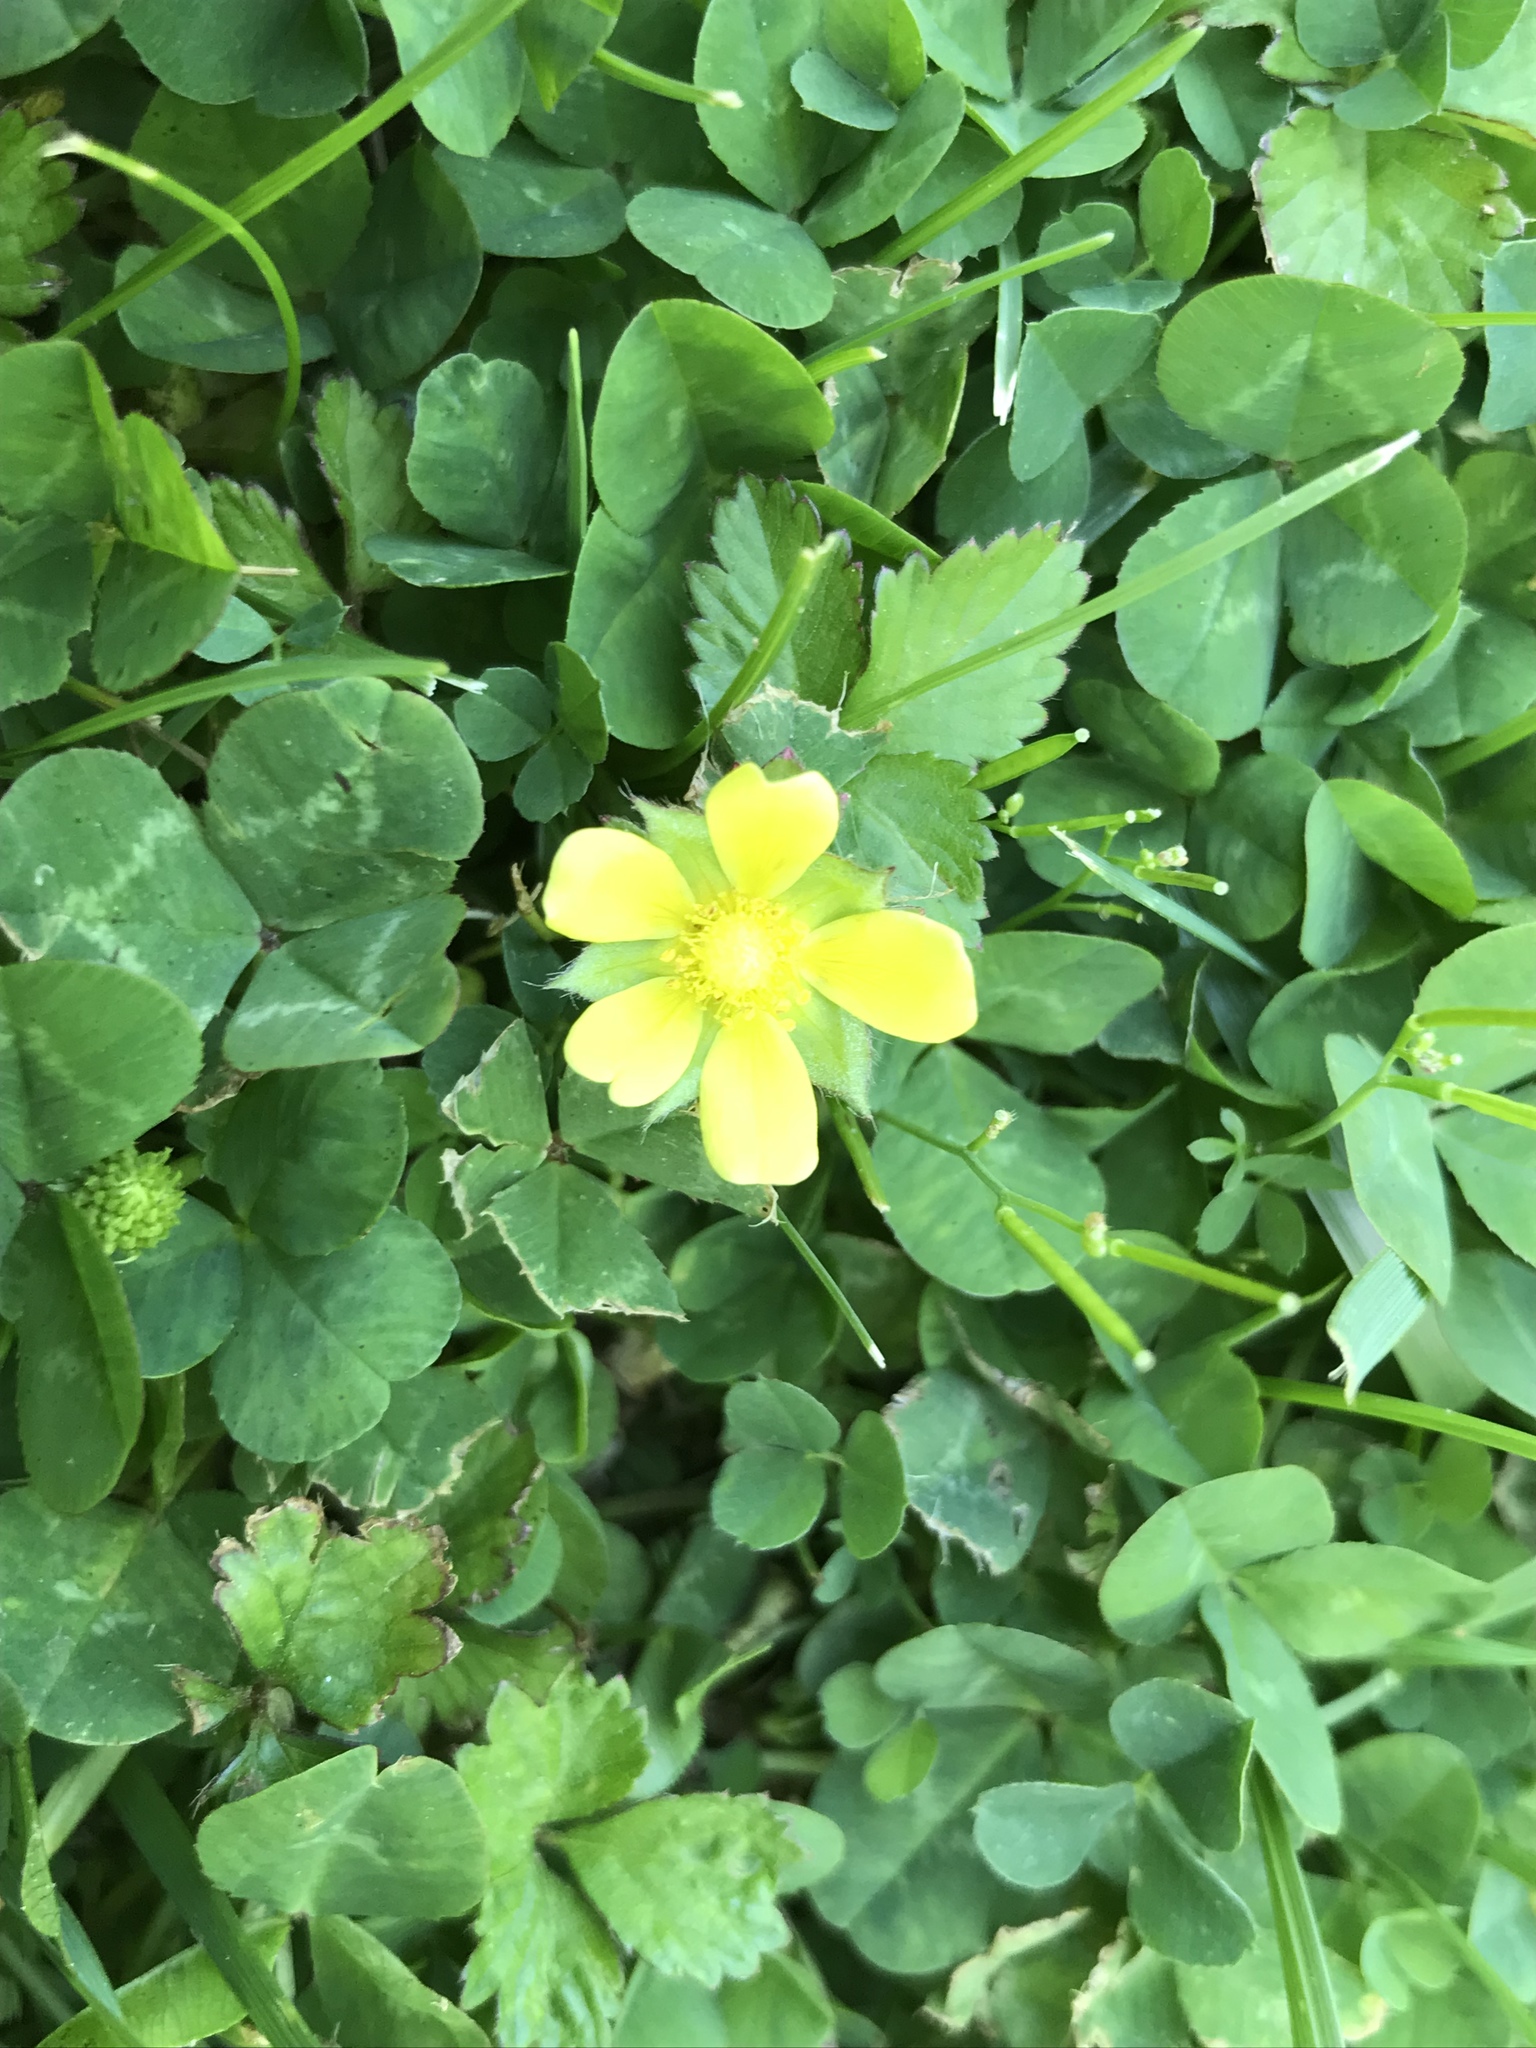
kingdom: Plantae
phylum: Tracheophyta
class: Magnoliopsida
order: Rosales
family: Rosaceae
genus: Potentilla
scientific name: Potentilla indica
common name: Yellow-flowered strawberry
